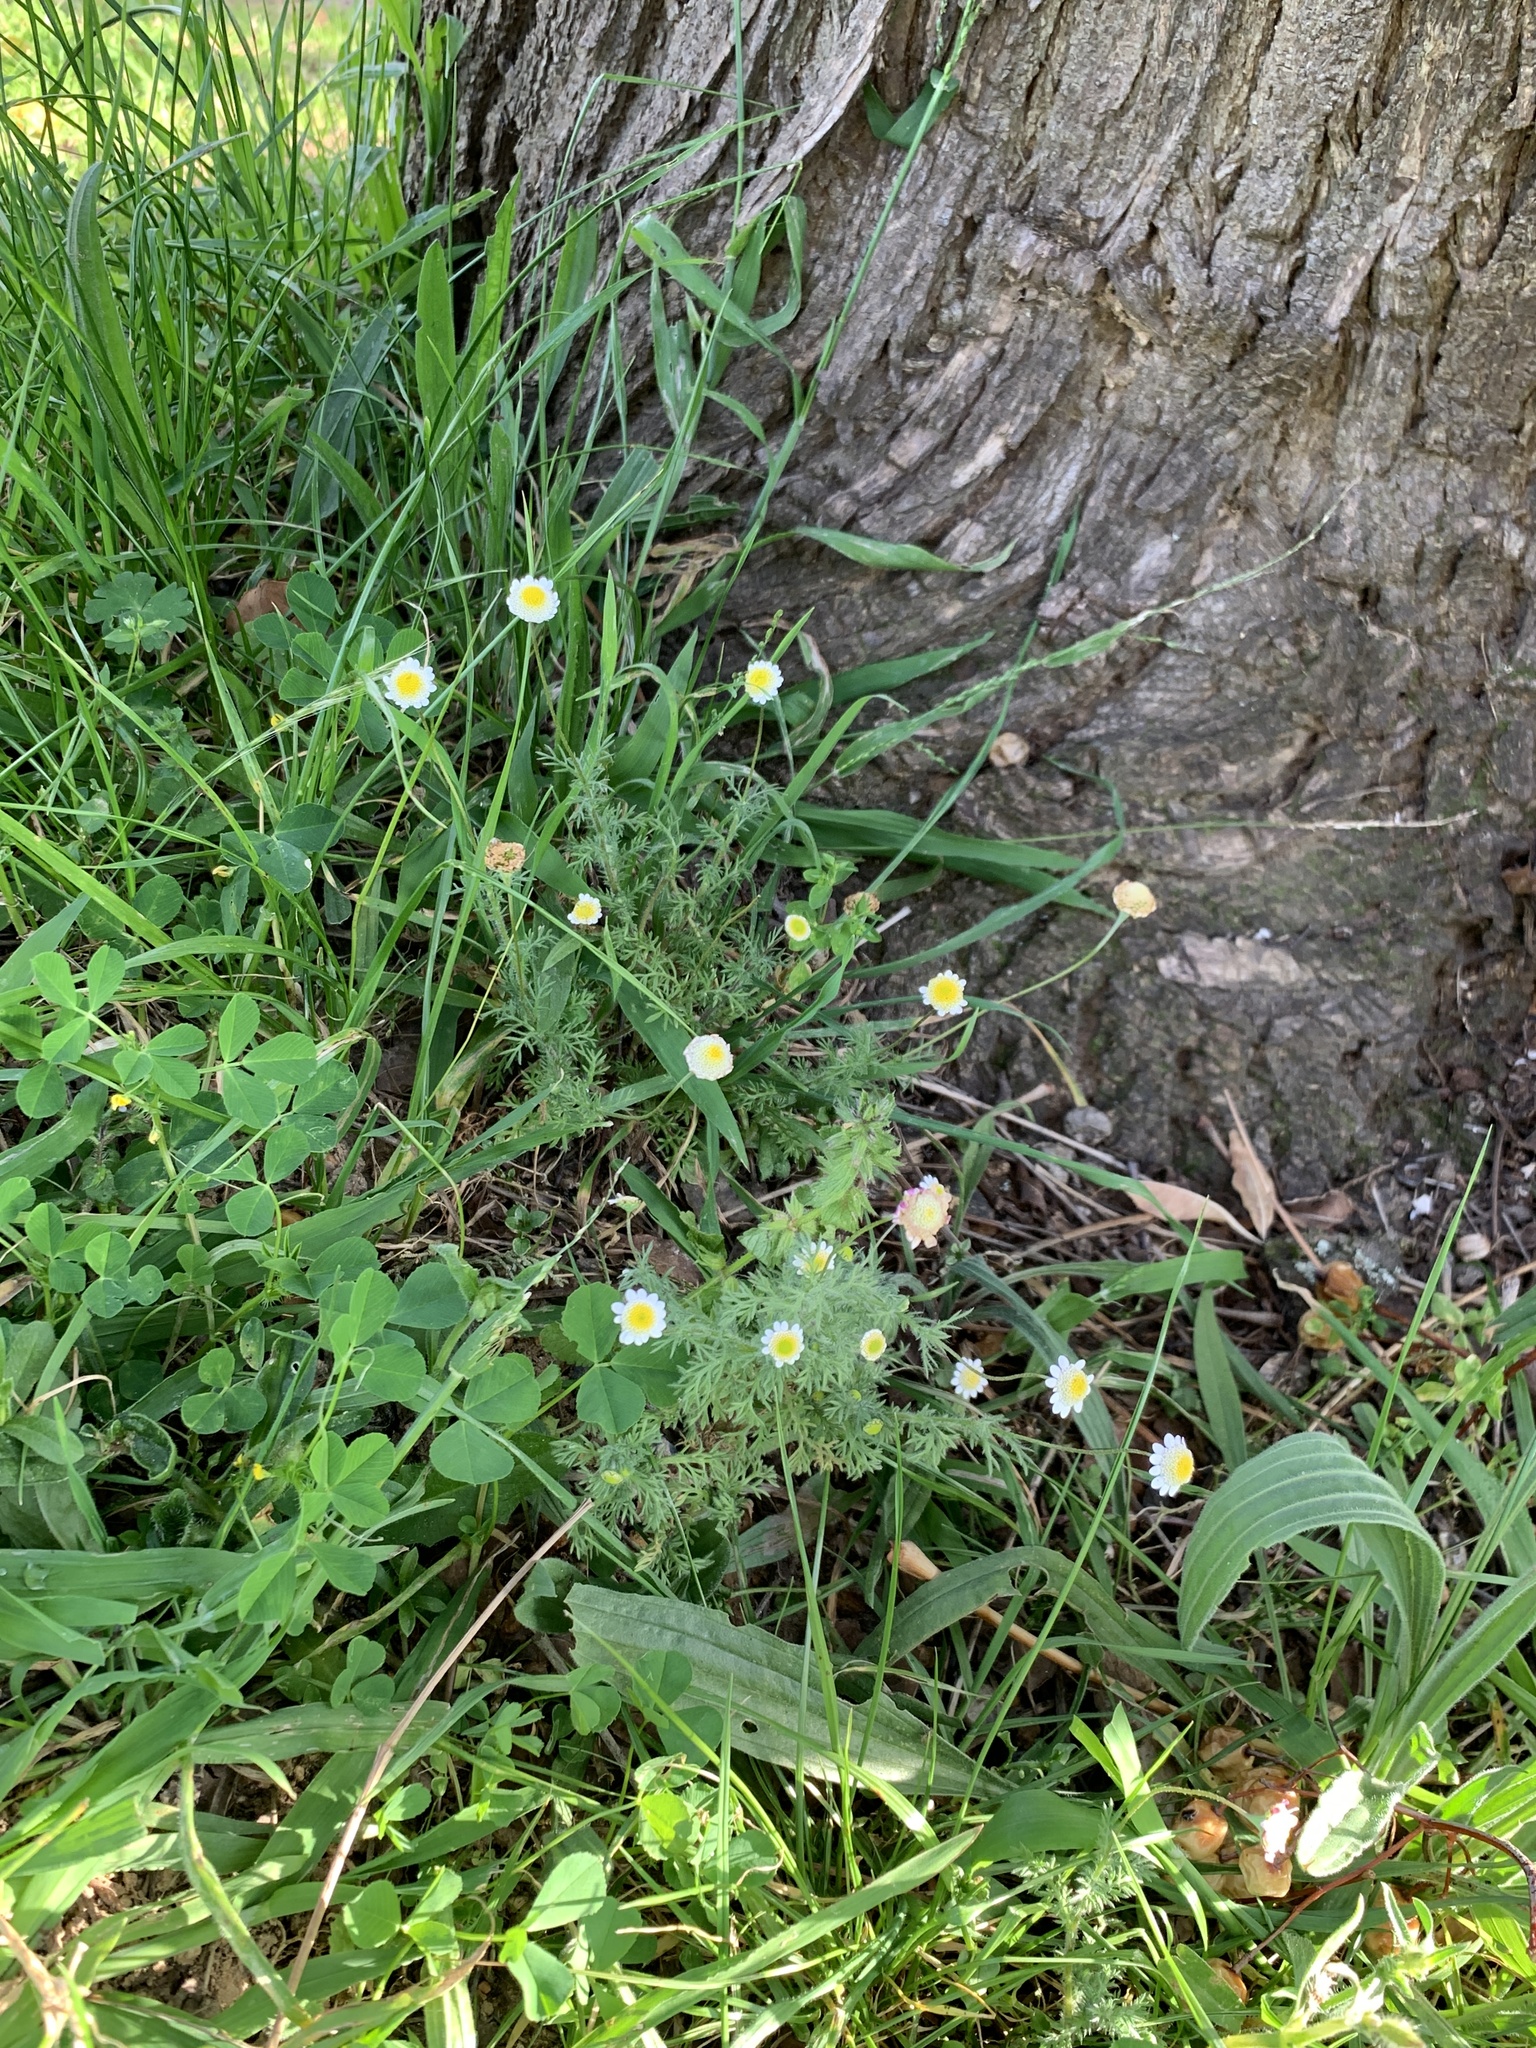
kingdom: Plantae
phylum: Tracheophyta
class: Magnoliopsida
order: Asterales
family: Asteraceae
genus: Cotula
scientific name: Cotula turbinata
